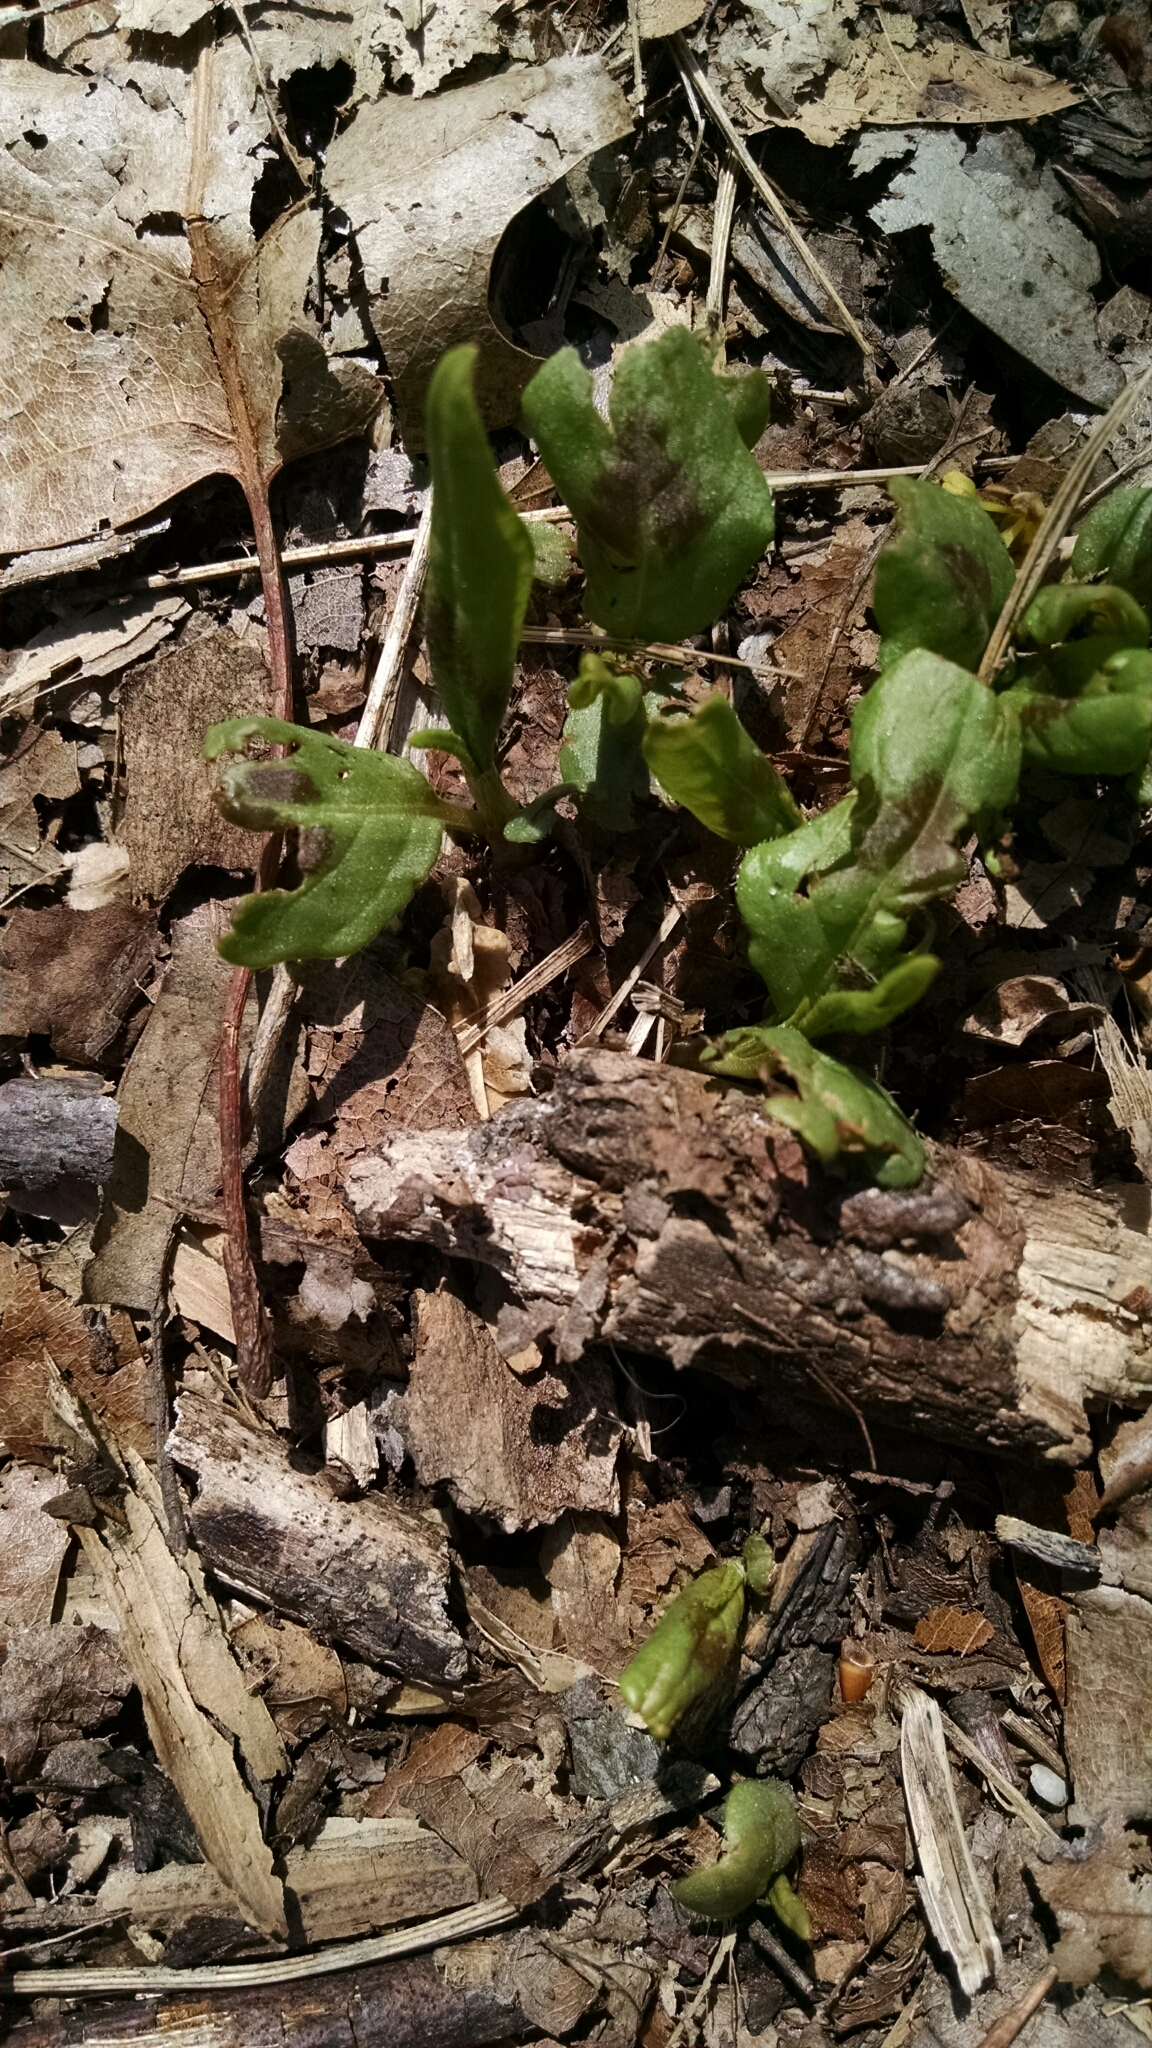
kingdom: Plantae
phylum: Tracheophyta
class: Magnoliopsida
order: Caryophyllales
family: Polygonaceae
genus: Persicaria
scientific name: Persicaria virginiana
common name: Jumpseed
